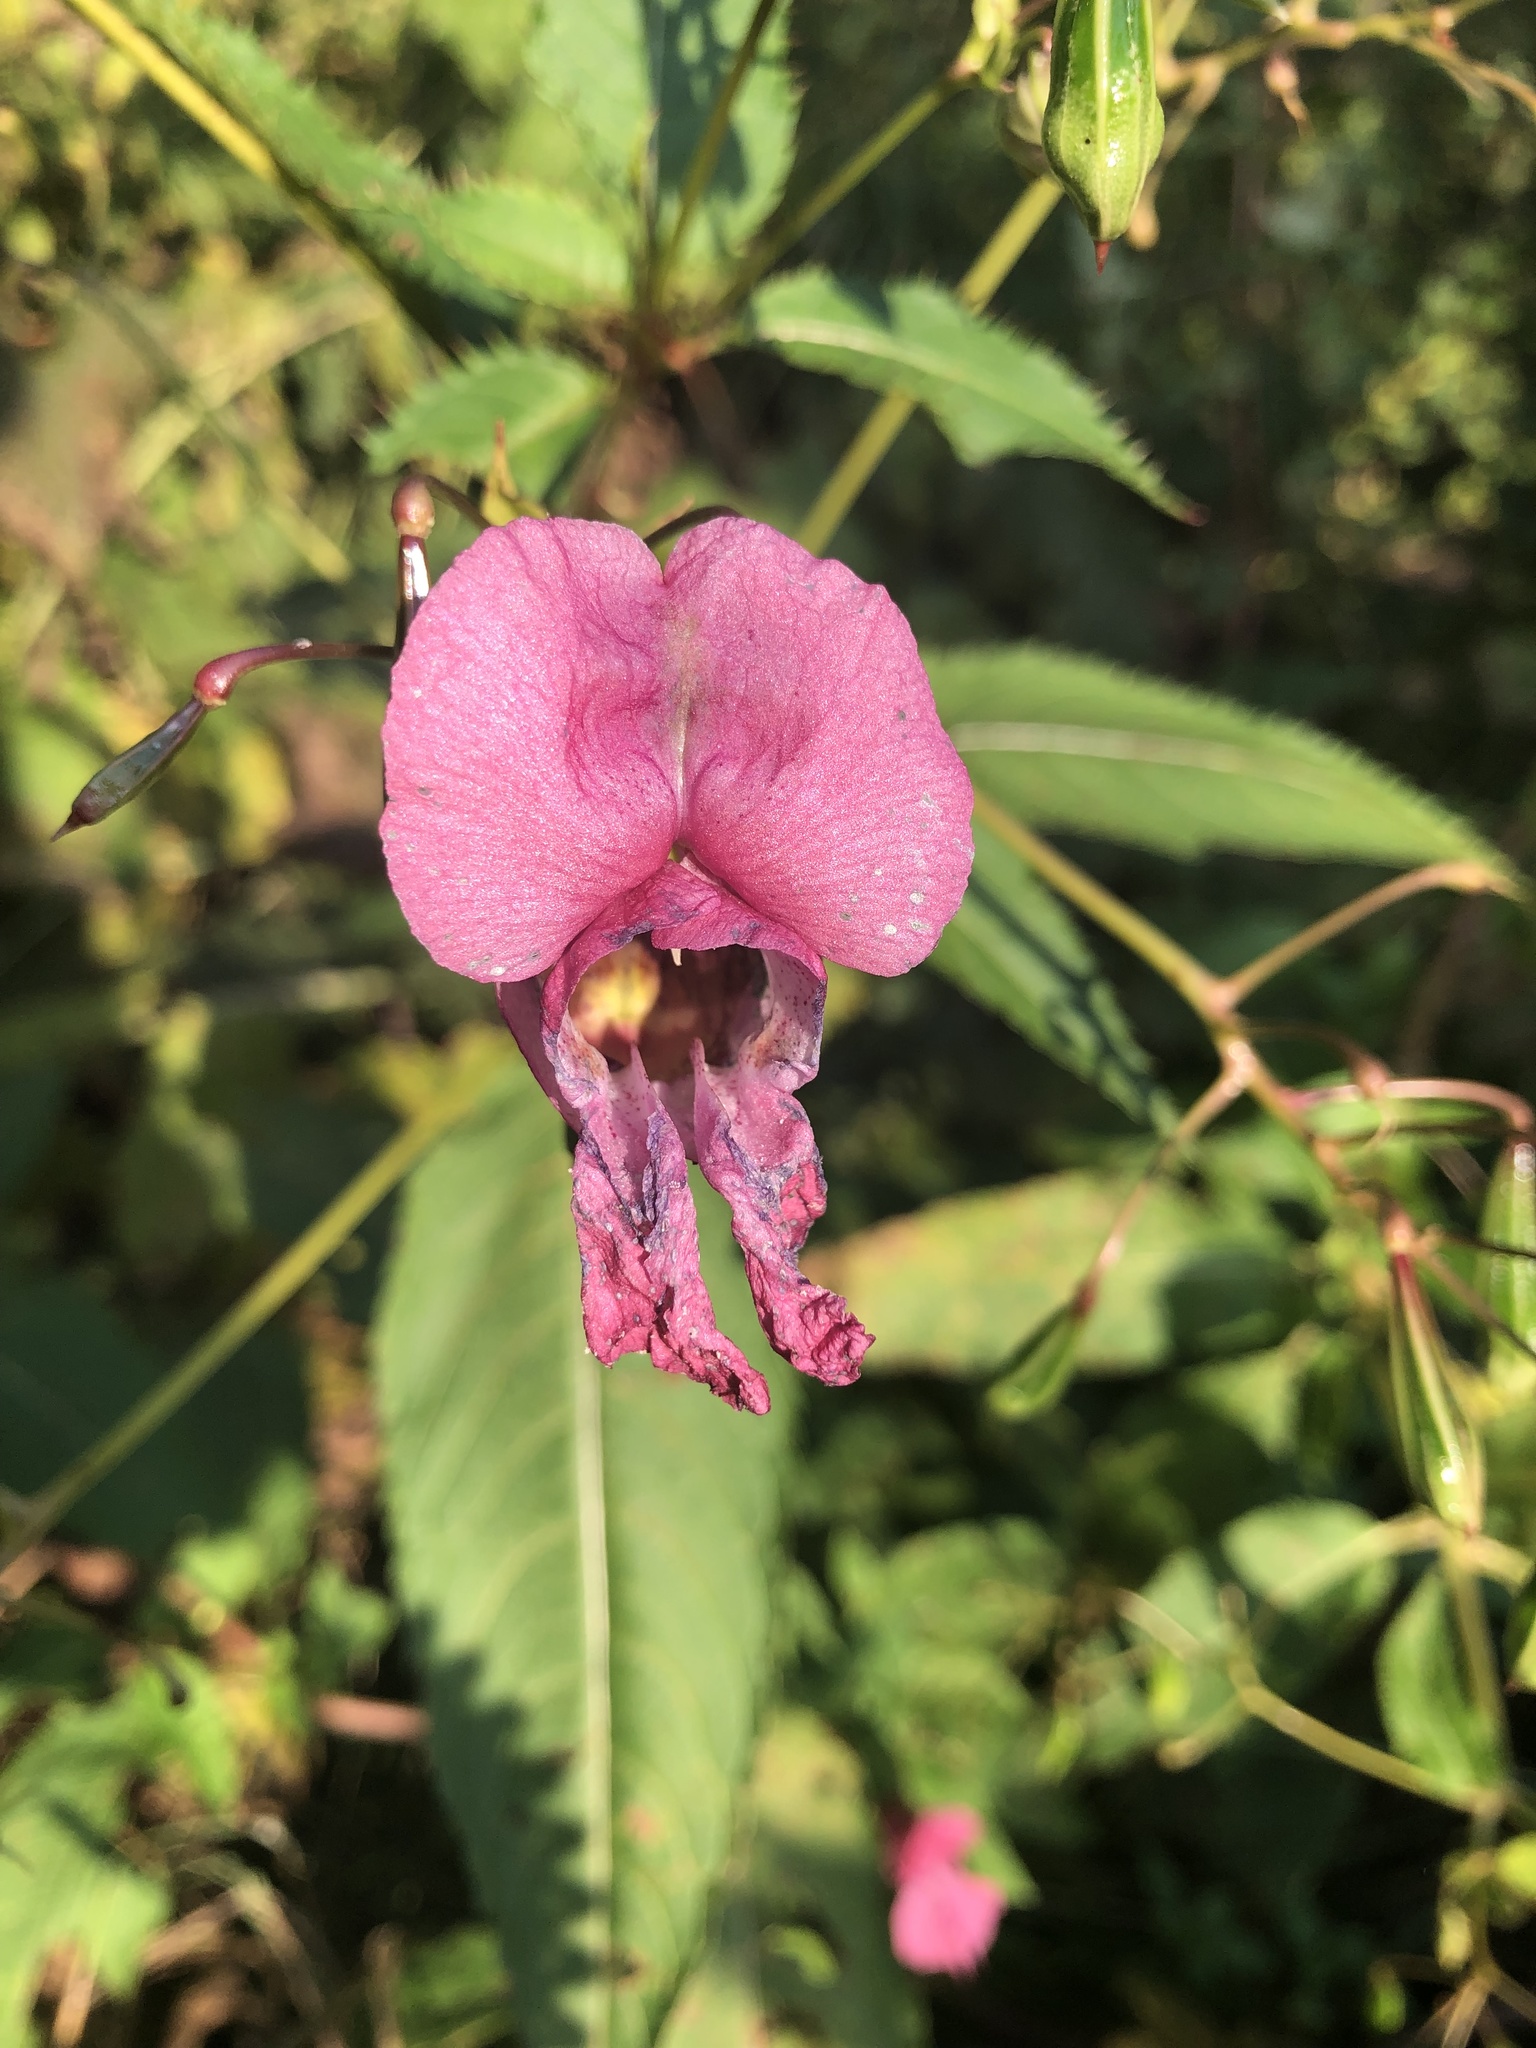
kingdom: Plantae
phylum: Tracheophyta
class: Magnoliopsida
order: Ericales
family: Balsaminaceae
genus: Impatiens
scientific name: Impatiens glandulifera
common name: Himalayan balsam
